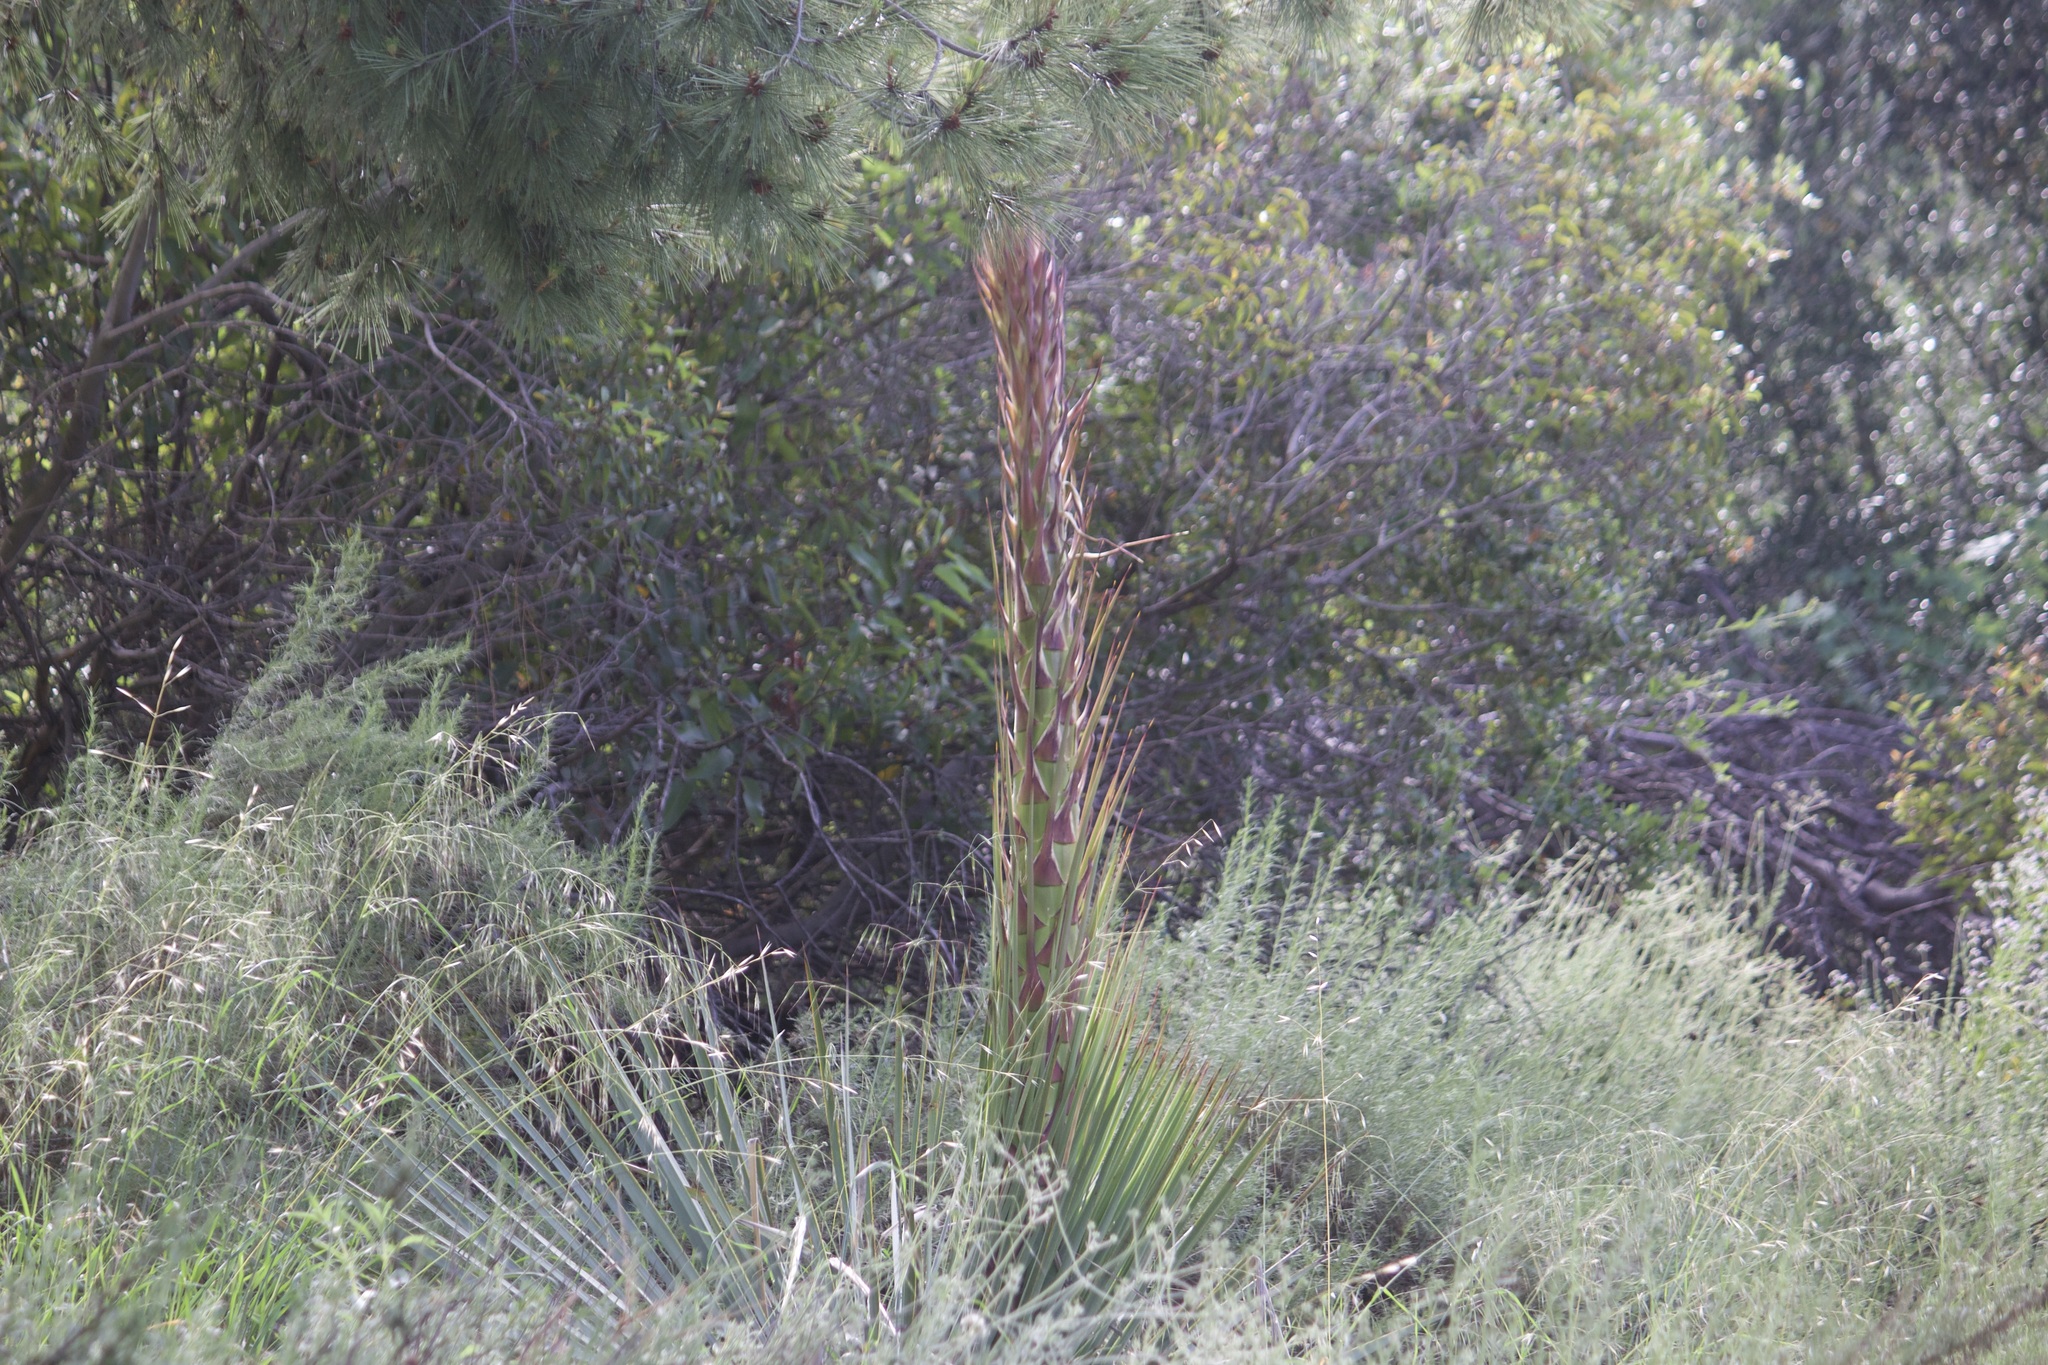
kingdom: Plantae
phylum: Tracheophyta
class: Liliopsida
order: Asparagales
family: Asparagaceae
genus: Hesperoyucca
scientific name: Hesperoyucca whipplei
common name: Our lord's-candle
